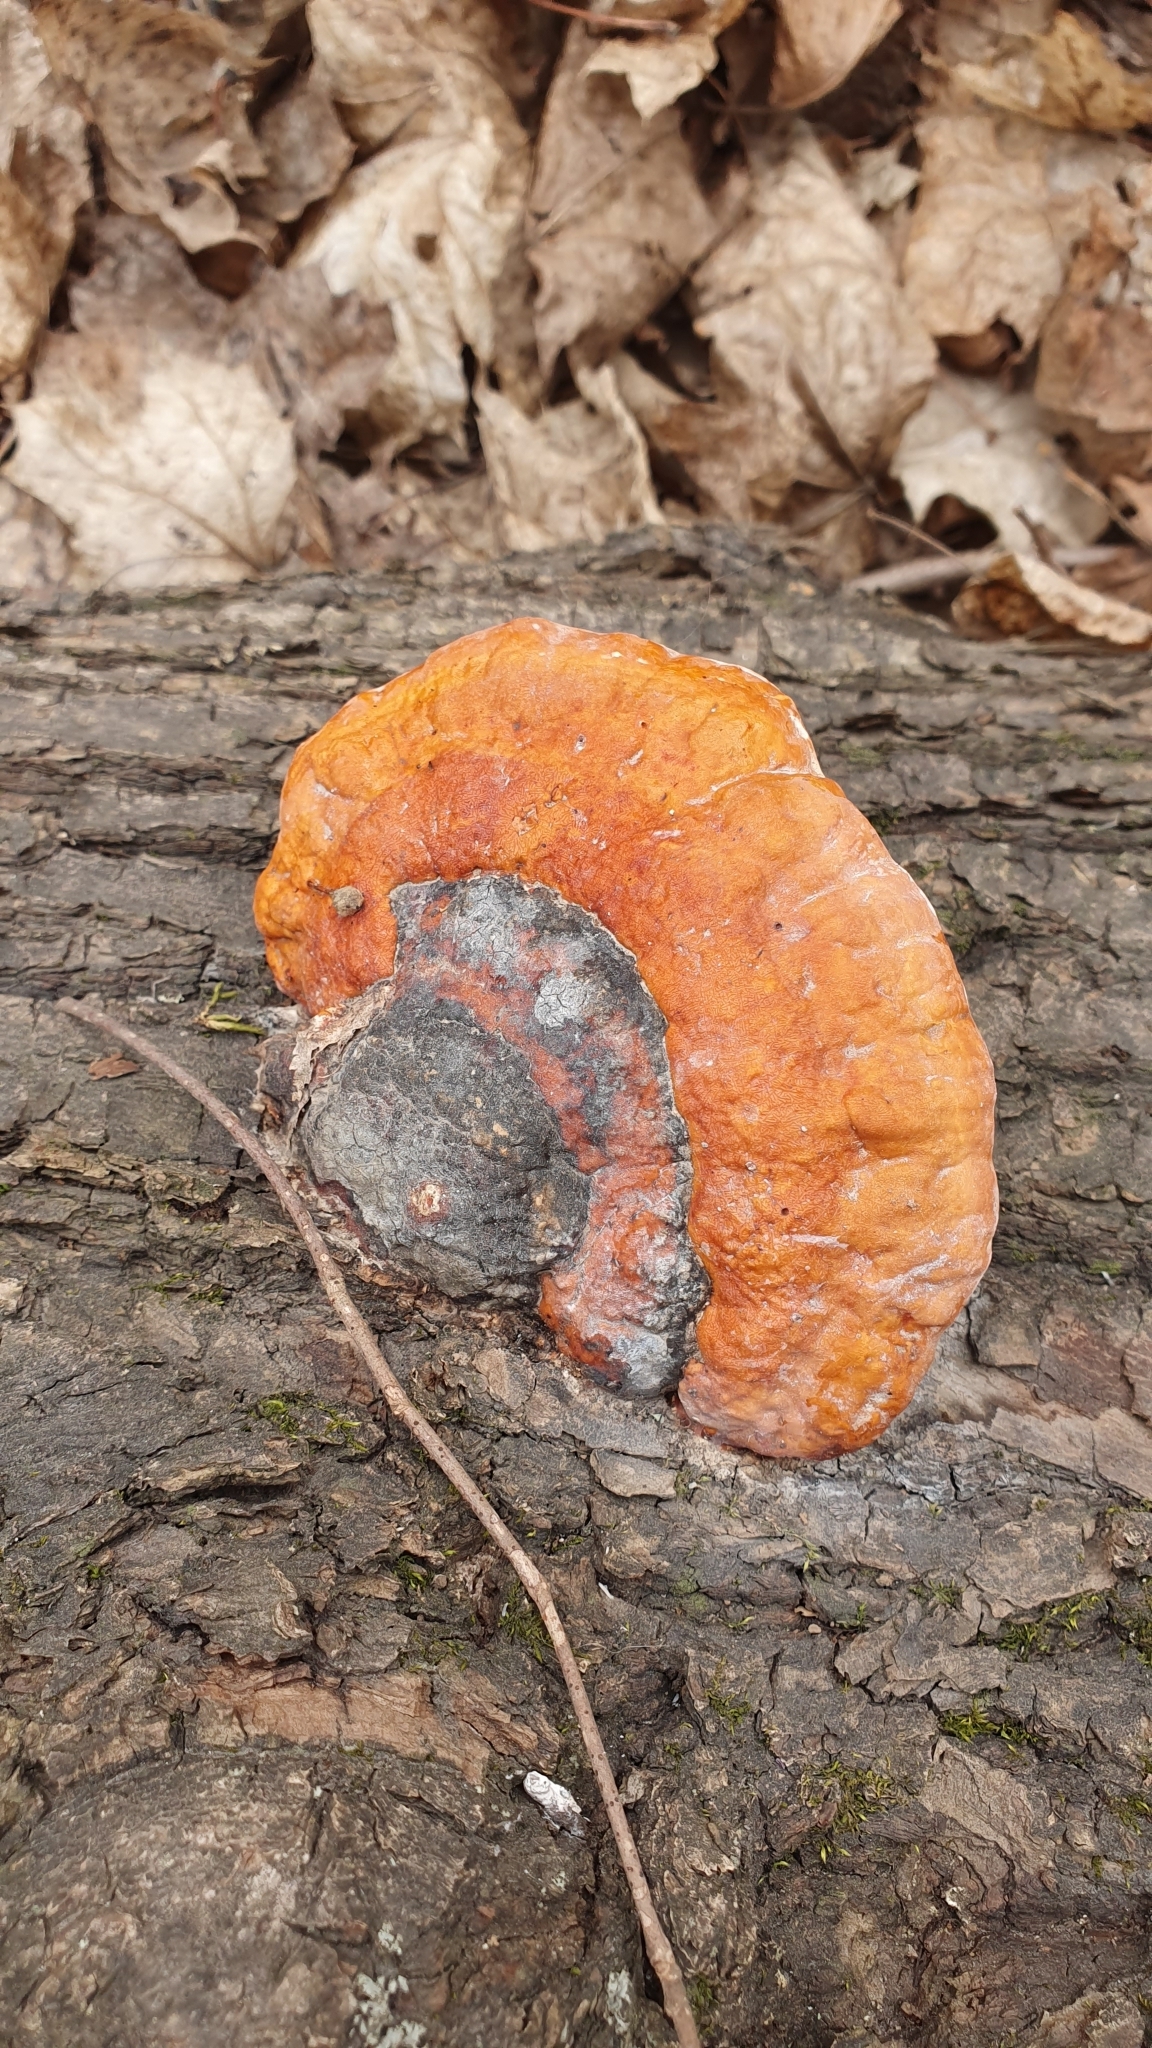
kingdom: Fungi
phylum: Basidiomycota
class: Agaricomycetes
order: Polyporales
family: Fomitopsidaceae
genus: Fomitopsis
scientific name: Fomitopsis pinicola
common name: Red-belted bracket
